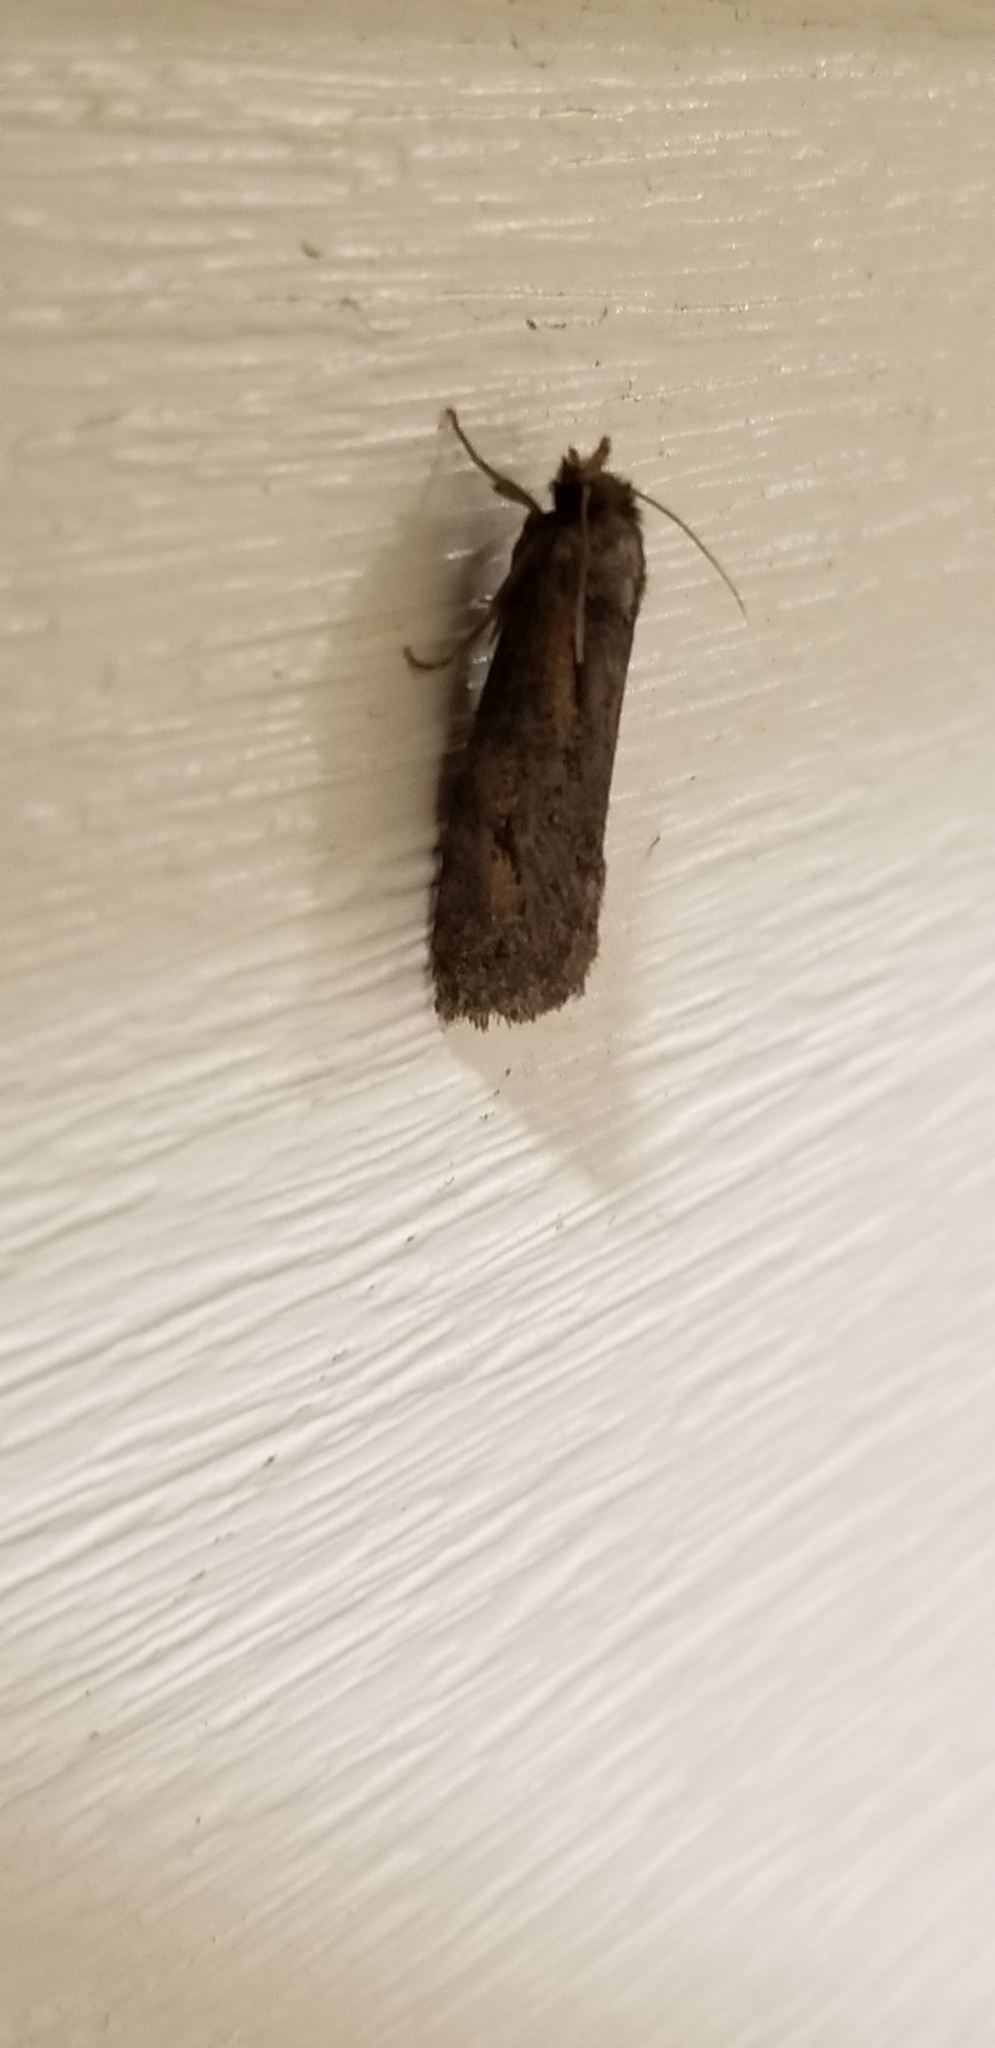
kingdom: Animalia
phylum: Arthropoda
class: Insecta
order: Lepidoptera
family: Tineidae
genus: Acrolophus
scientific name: Acrolophus popeanella
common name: Clemens' grass tubeworm moth
